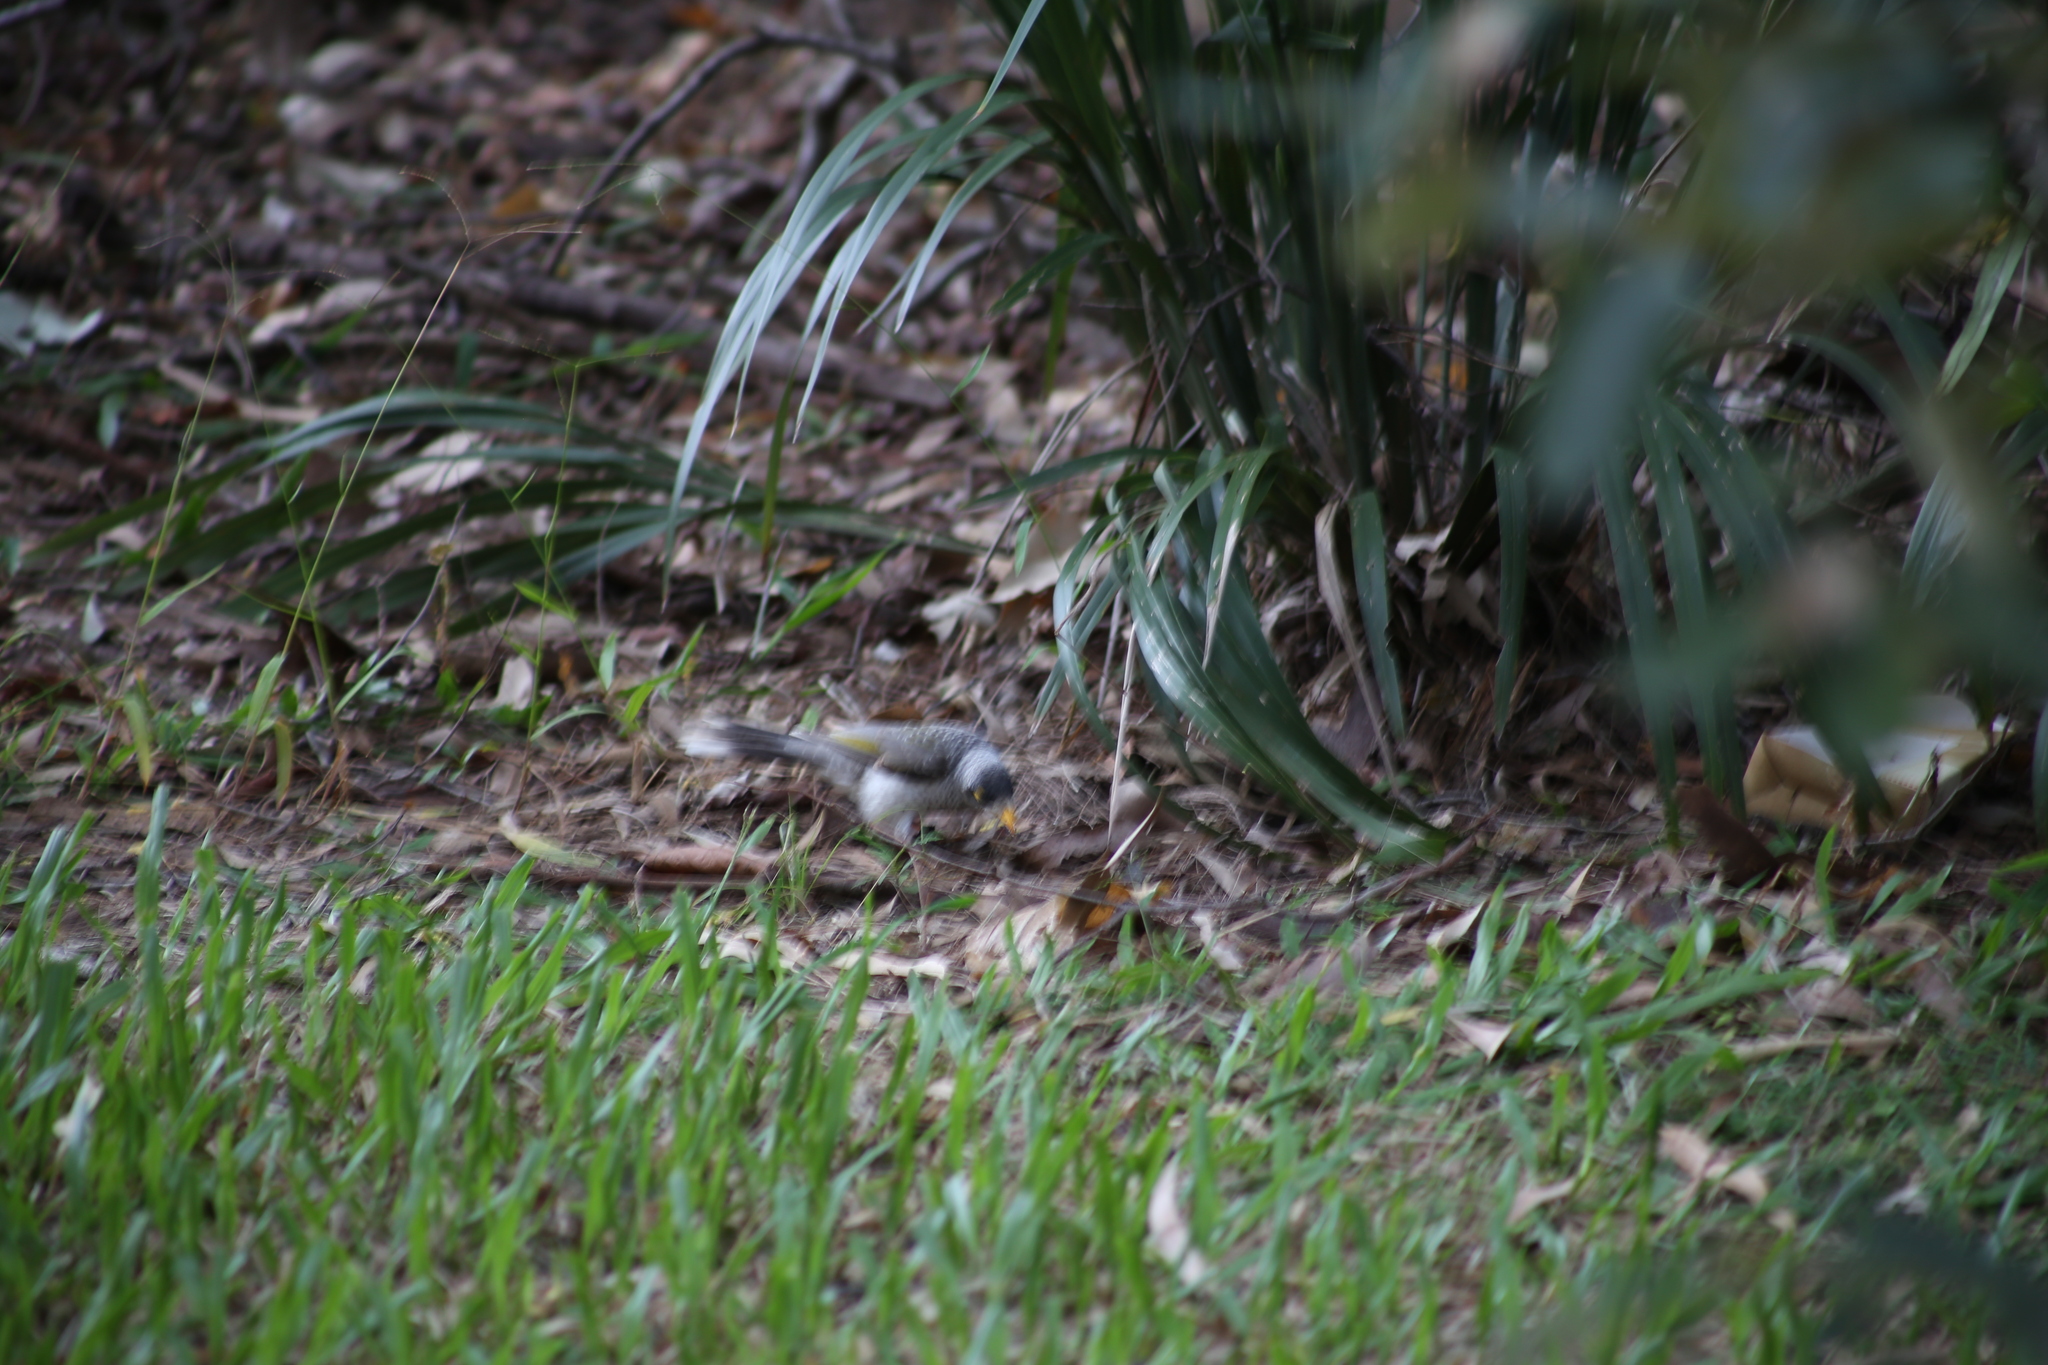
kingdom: Animalia
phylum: Chordata
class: Aves
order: Passeriformes
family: Meliphagidae
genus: Manorina
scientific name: Manorina melanocephala
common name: Noisy miner
